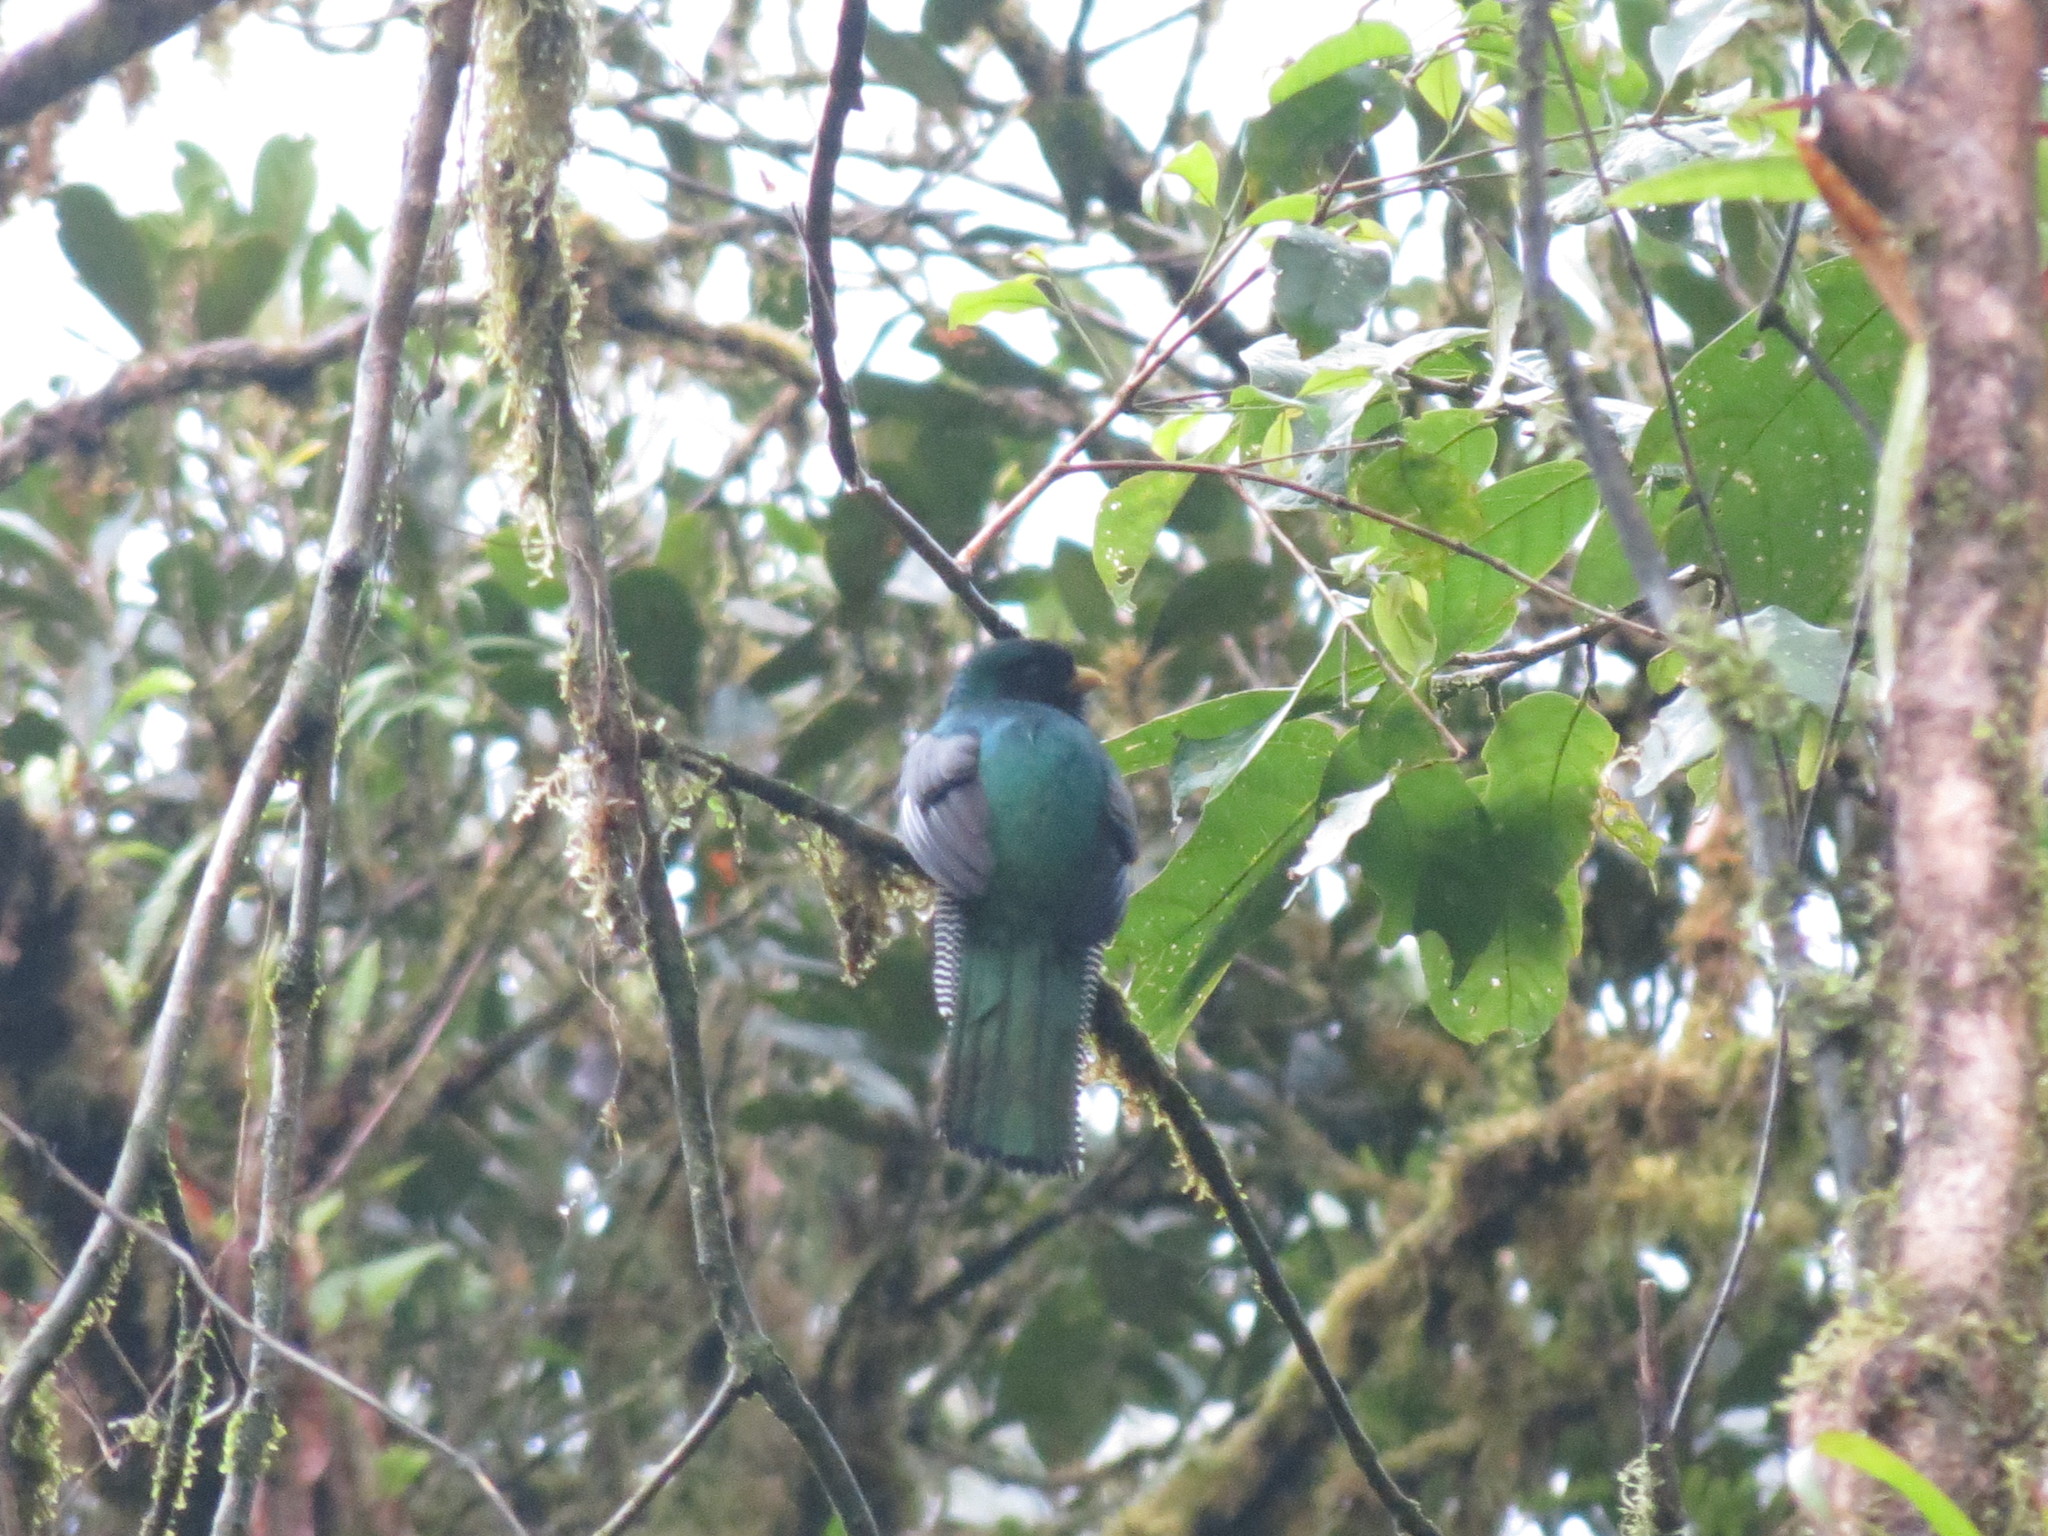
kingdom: Animalia
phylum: Chordata
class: Aves
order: Trogoniformes
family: Trogonidae
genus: Trogon
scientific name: Trogon collaris
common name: Collared trogon
